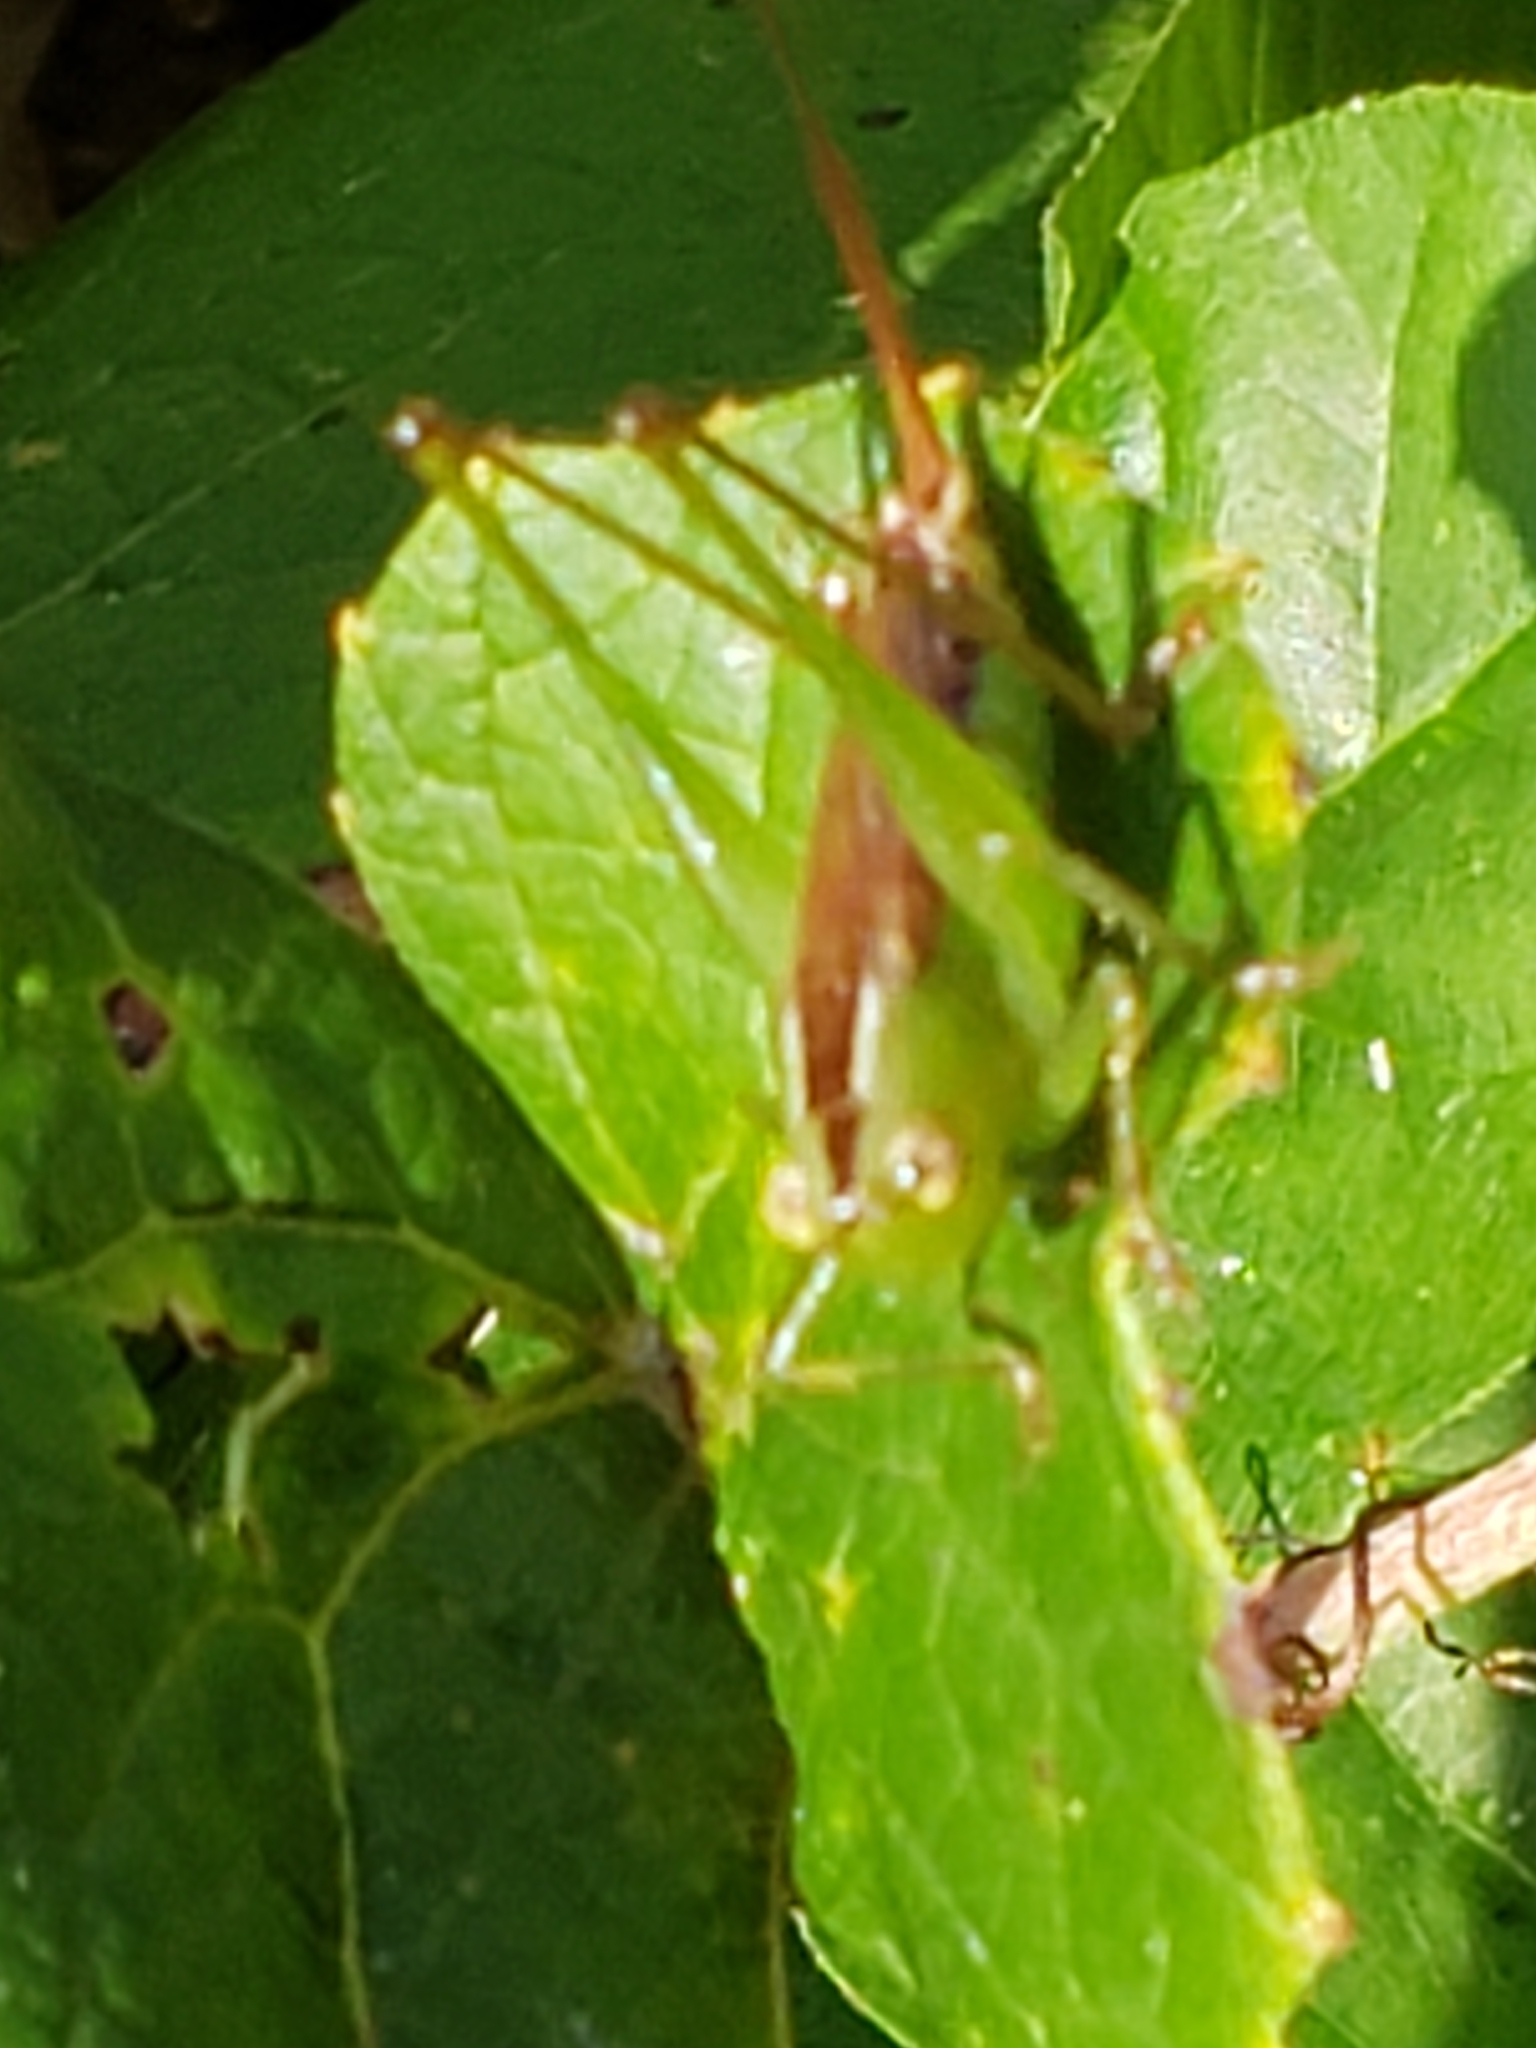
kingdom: Animalia
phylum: Arthropoda
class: Insecta
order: Orthoptera
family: Tettigoniidae
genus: Conocephalus
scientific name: Conocephalus brevipennis
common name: Short-winged meadow katydid
